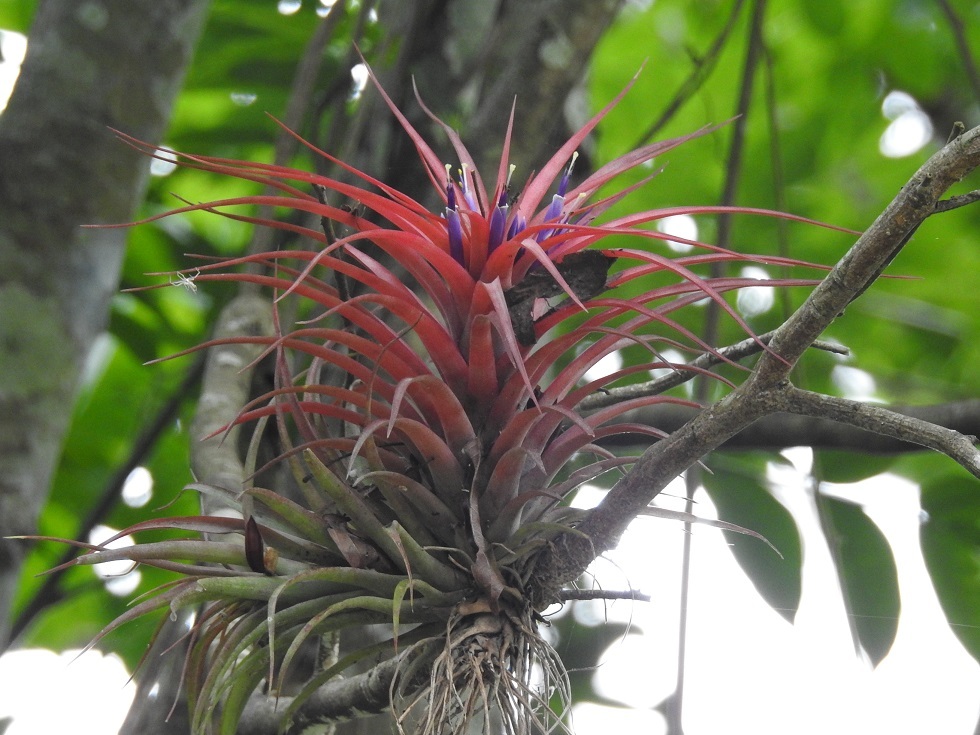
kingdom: Plantae
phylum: Tracheophyta
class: Liliopsida
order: Poales
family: Bromeliaceae
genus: Tillandsia
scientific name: Tillandsia brachycaulos
